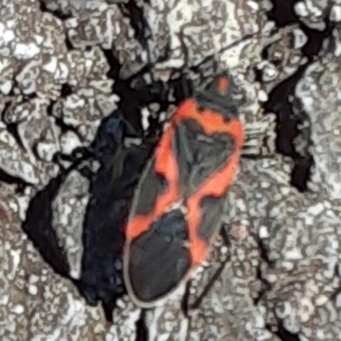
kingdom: Animalia
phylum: Arthropoda
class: Insecta
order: Hemiptera
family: Lygaeidae
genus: Lygaeus
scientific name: Lygaeus kalmii
